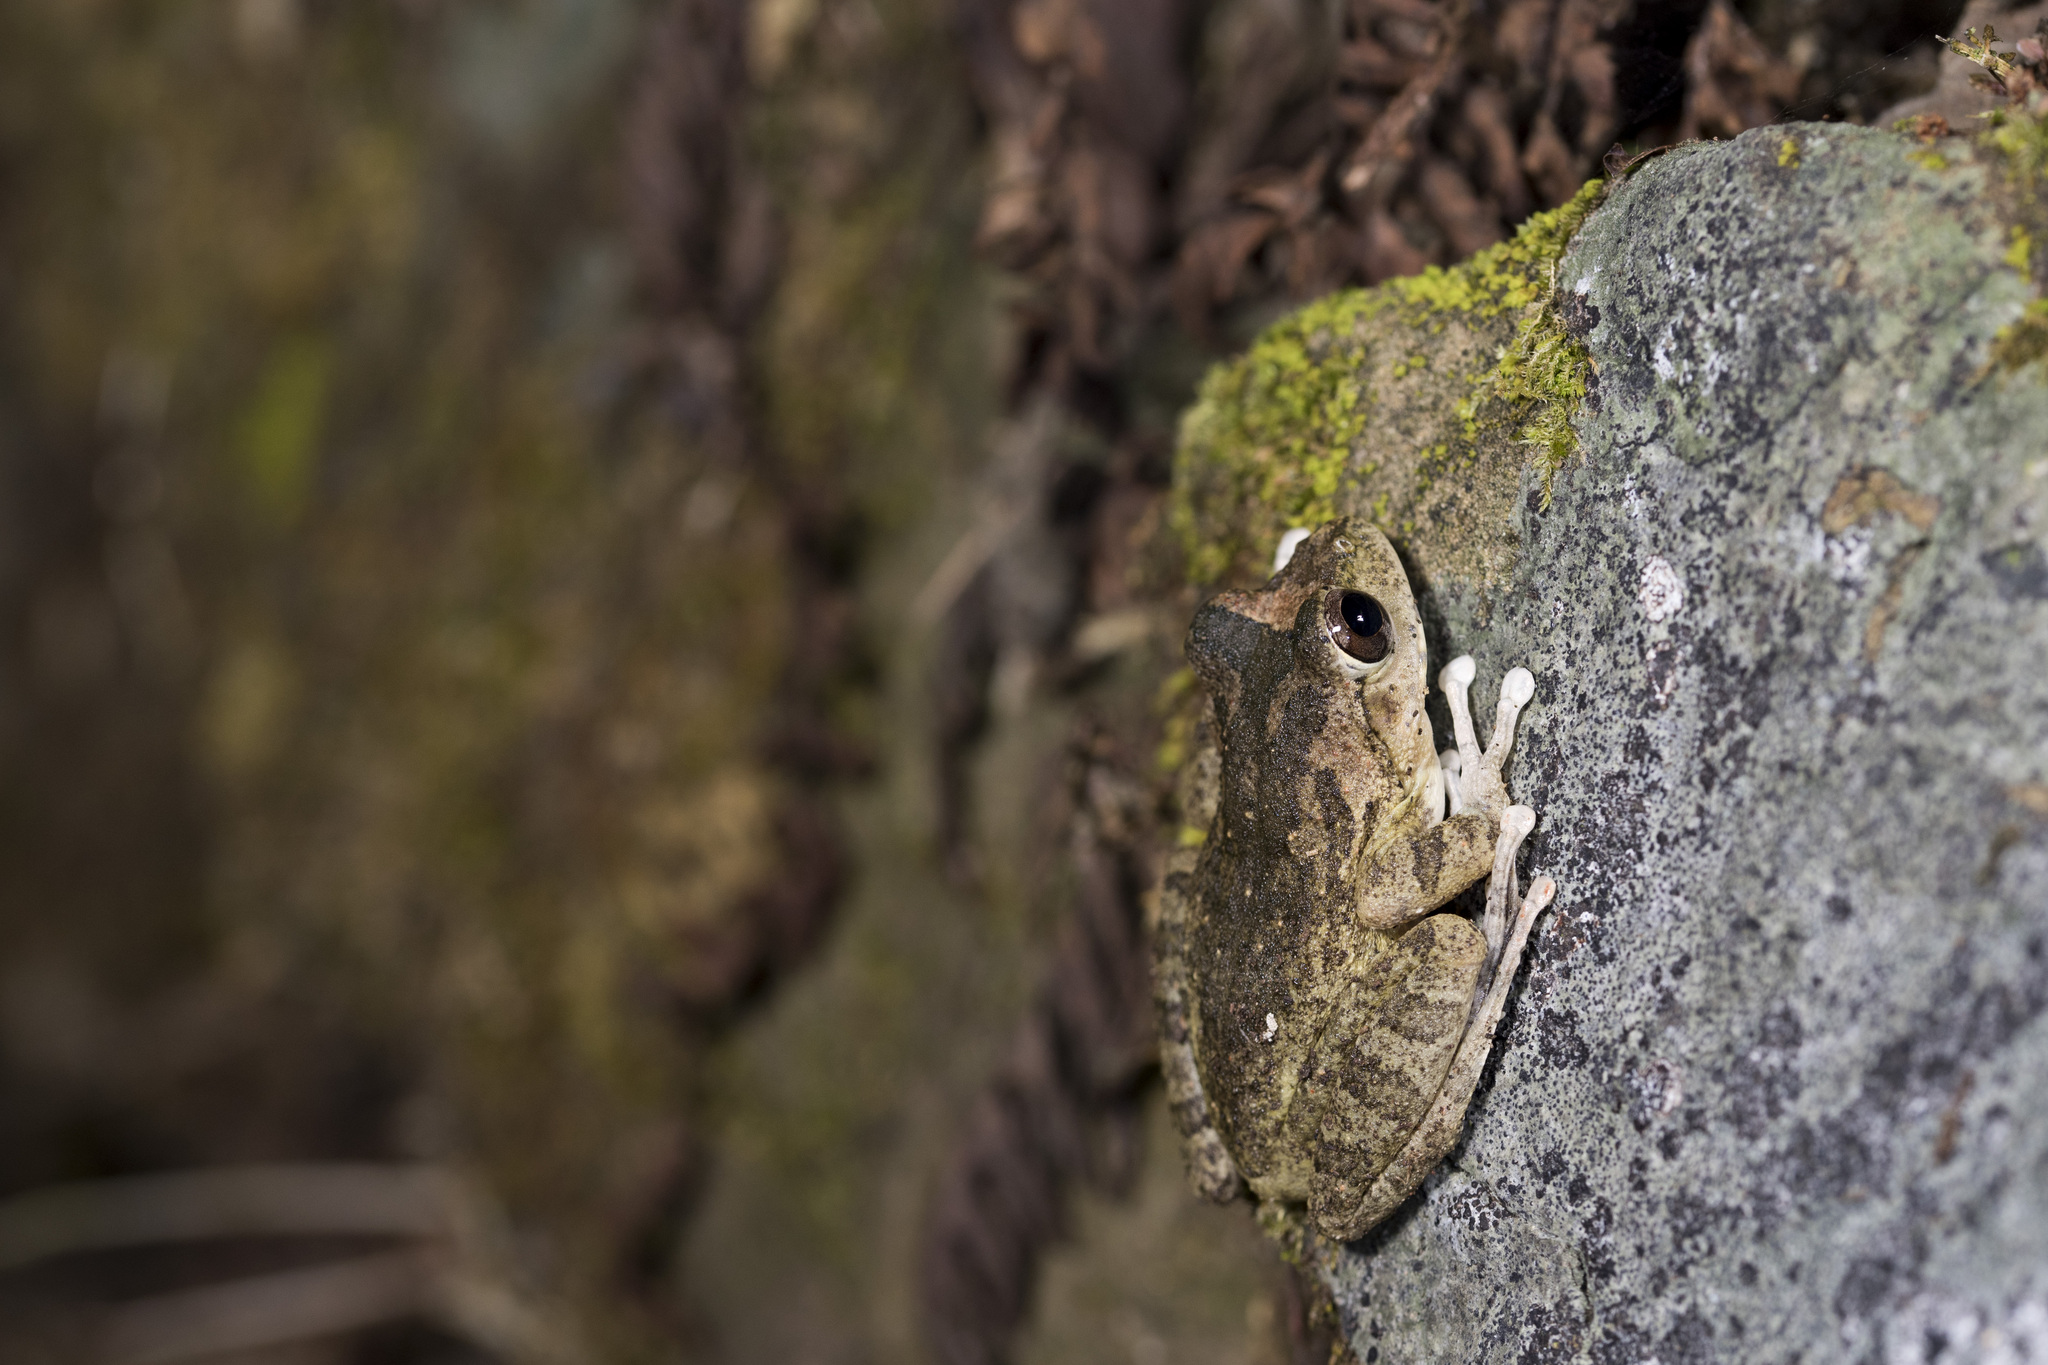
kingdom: Animalia
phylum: Chordata
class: Amphibia
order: Anura
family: Rhacophoridae
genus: Buergeria
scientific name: Buergeria robusta
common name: Brown treefrog
